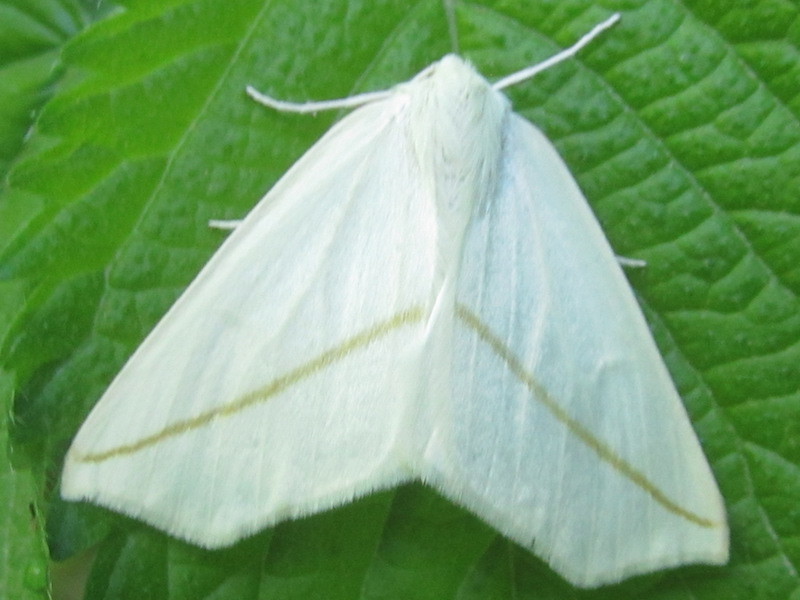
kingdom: Animalia
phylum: Arthropoda
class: Insecta
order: Lepidoptera
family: Geometridae
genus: Tetracis
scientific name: Tetracis cachexiata
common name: White slant-line
